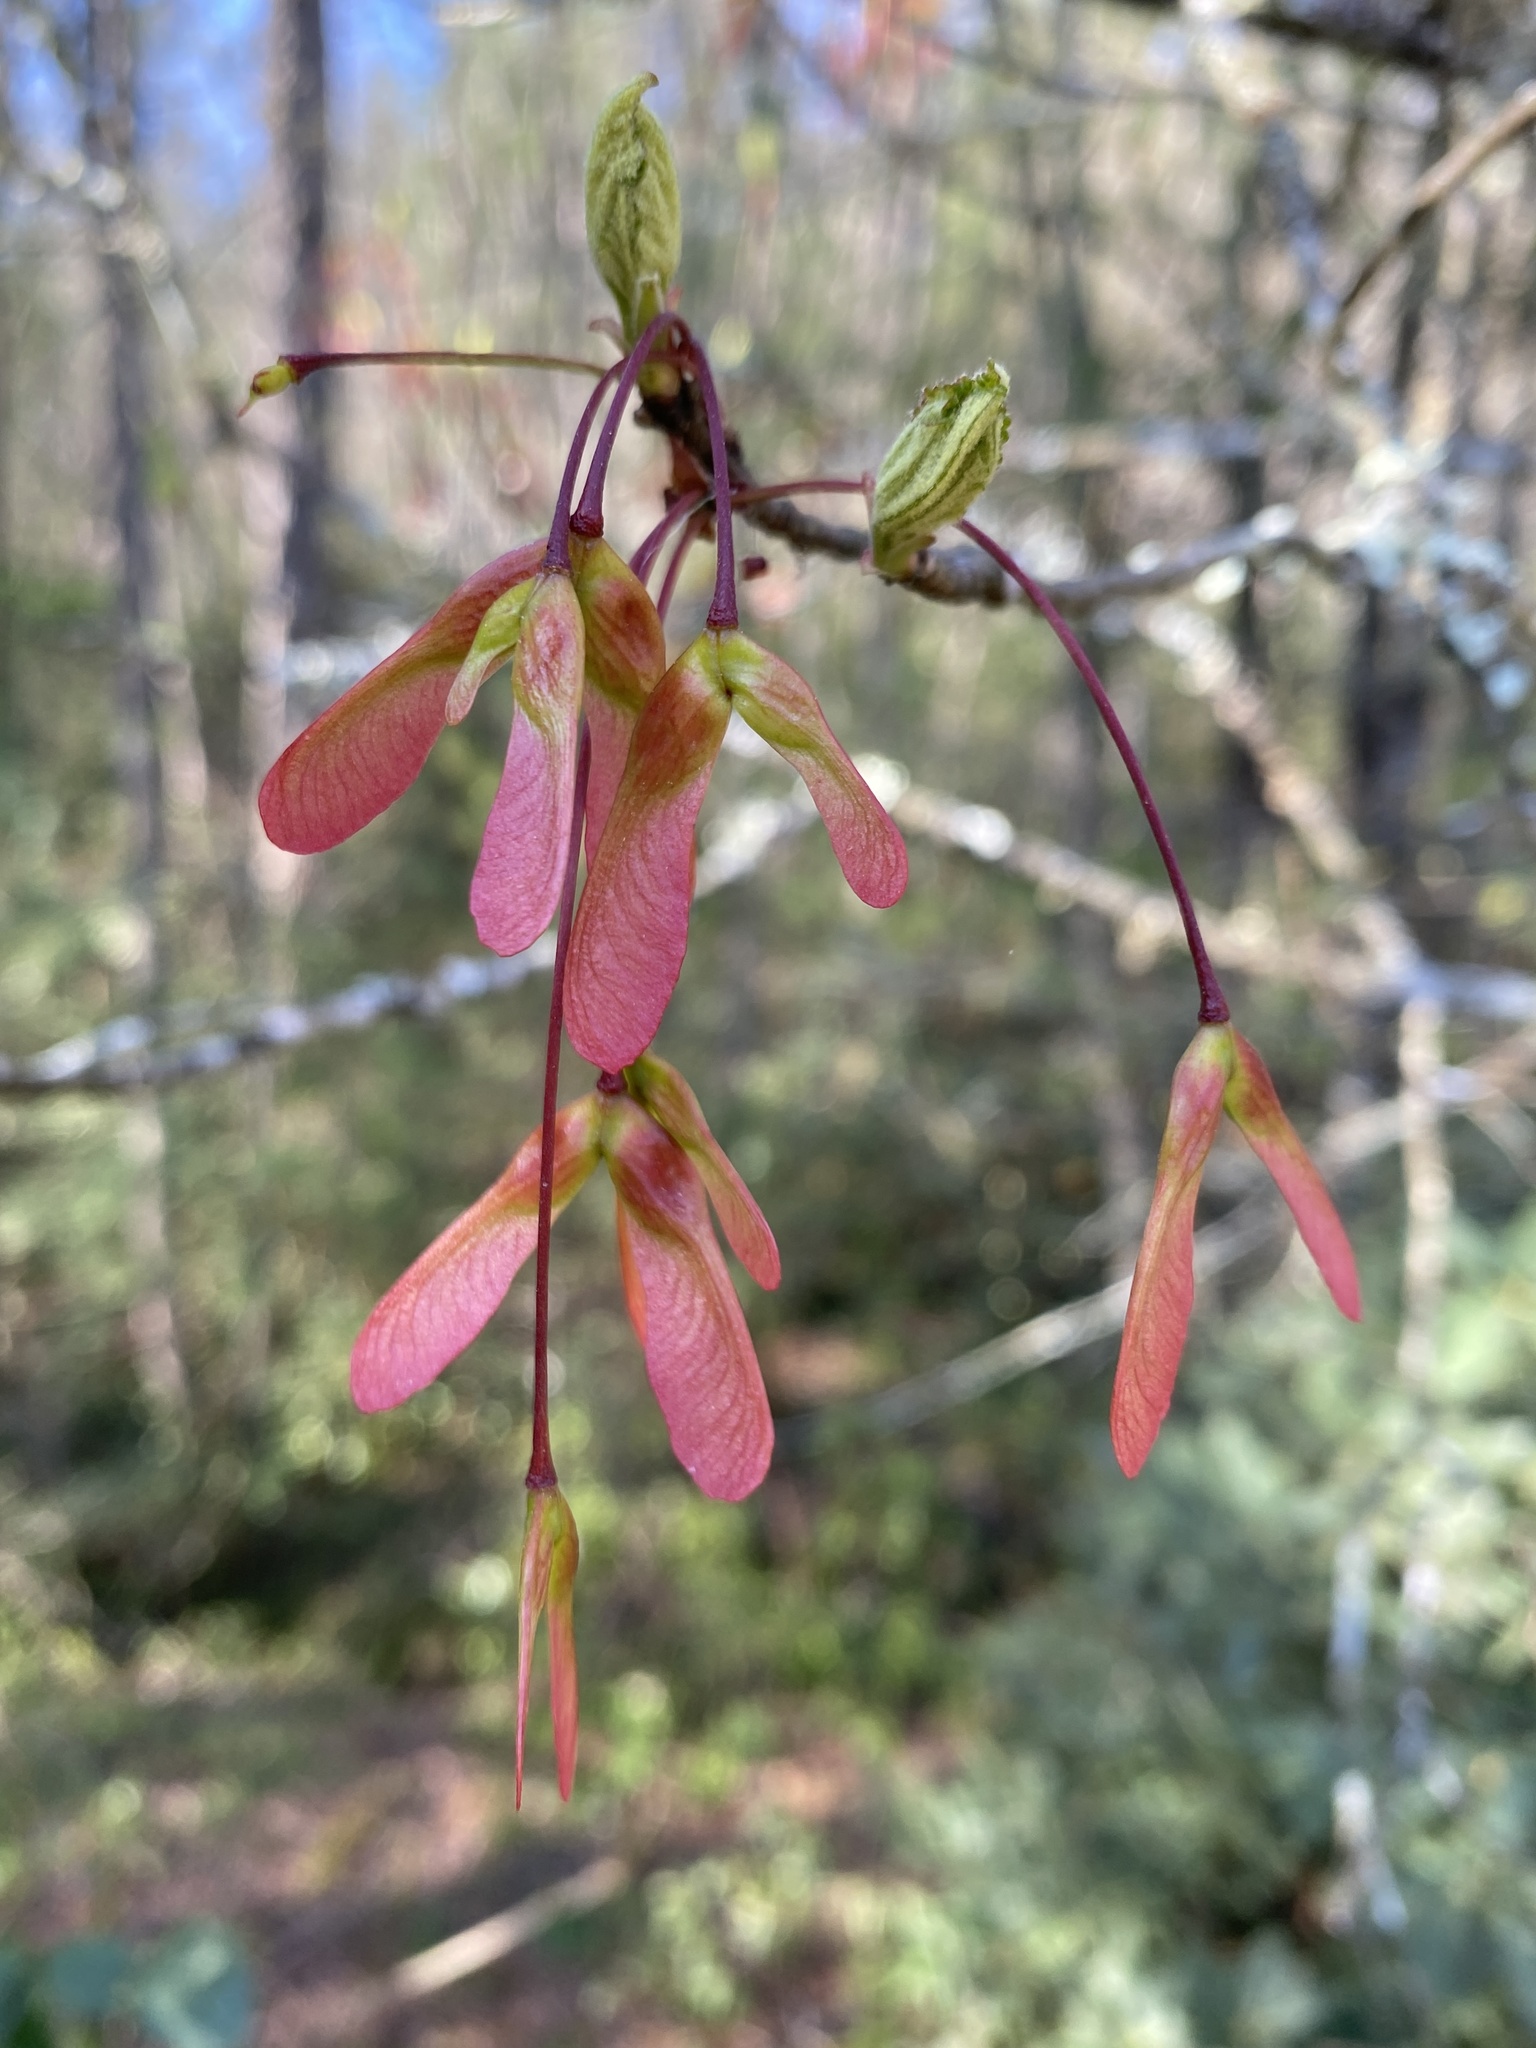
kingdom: Plantae
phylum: Tracheophyta
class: Magnoliopsida
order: Sapindales
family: Sapindaceae
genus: Acer
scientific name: Acer rubrum
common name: Red maple
